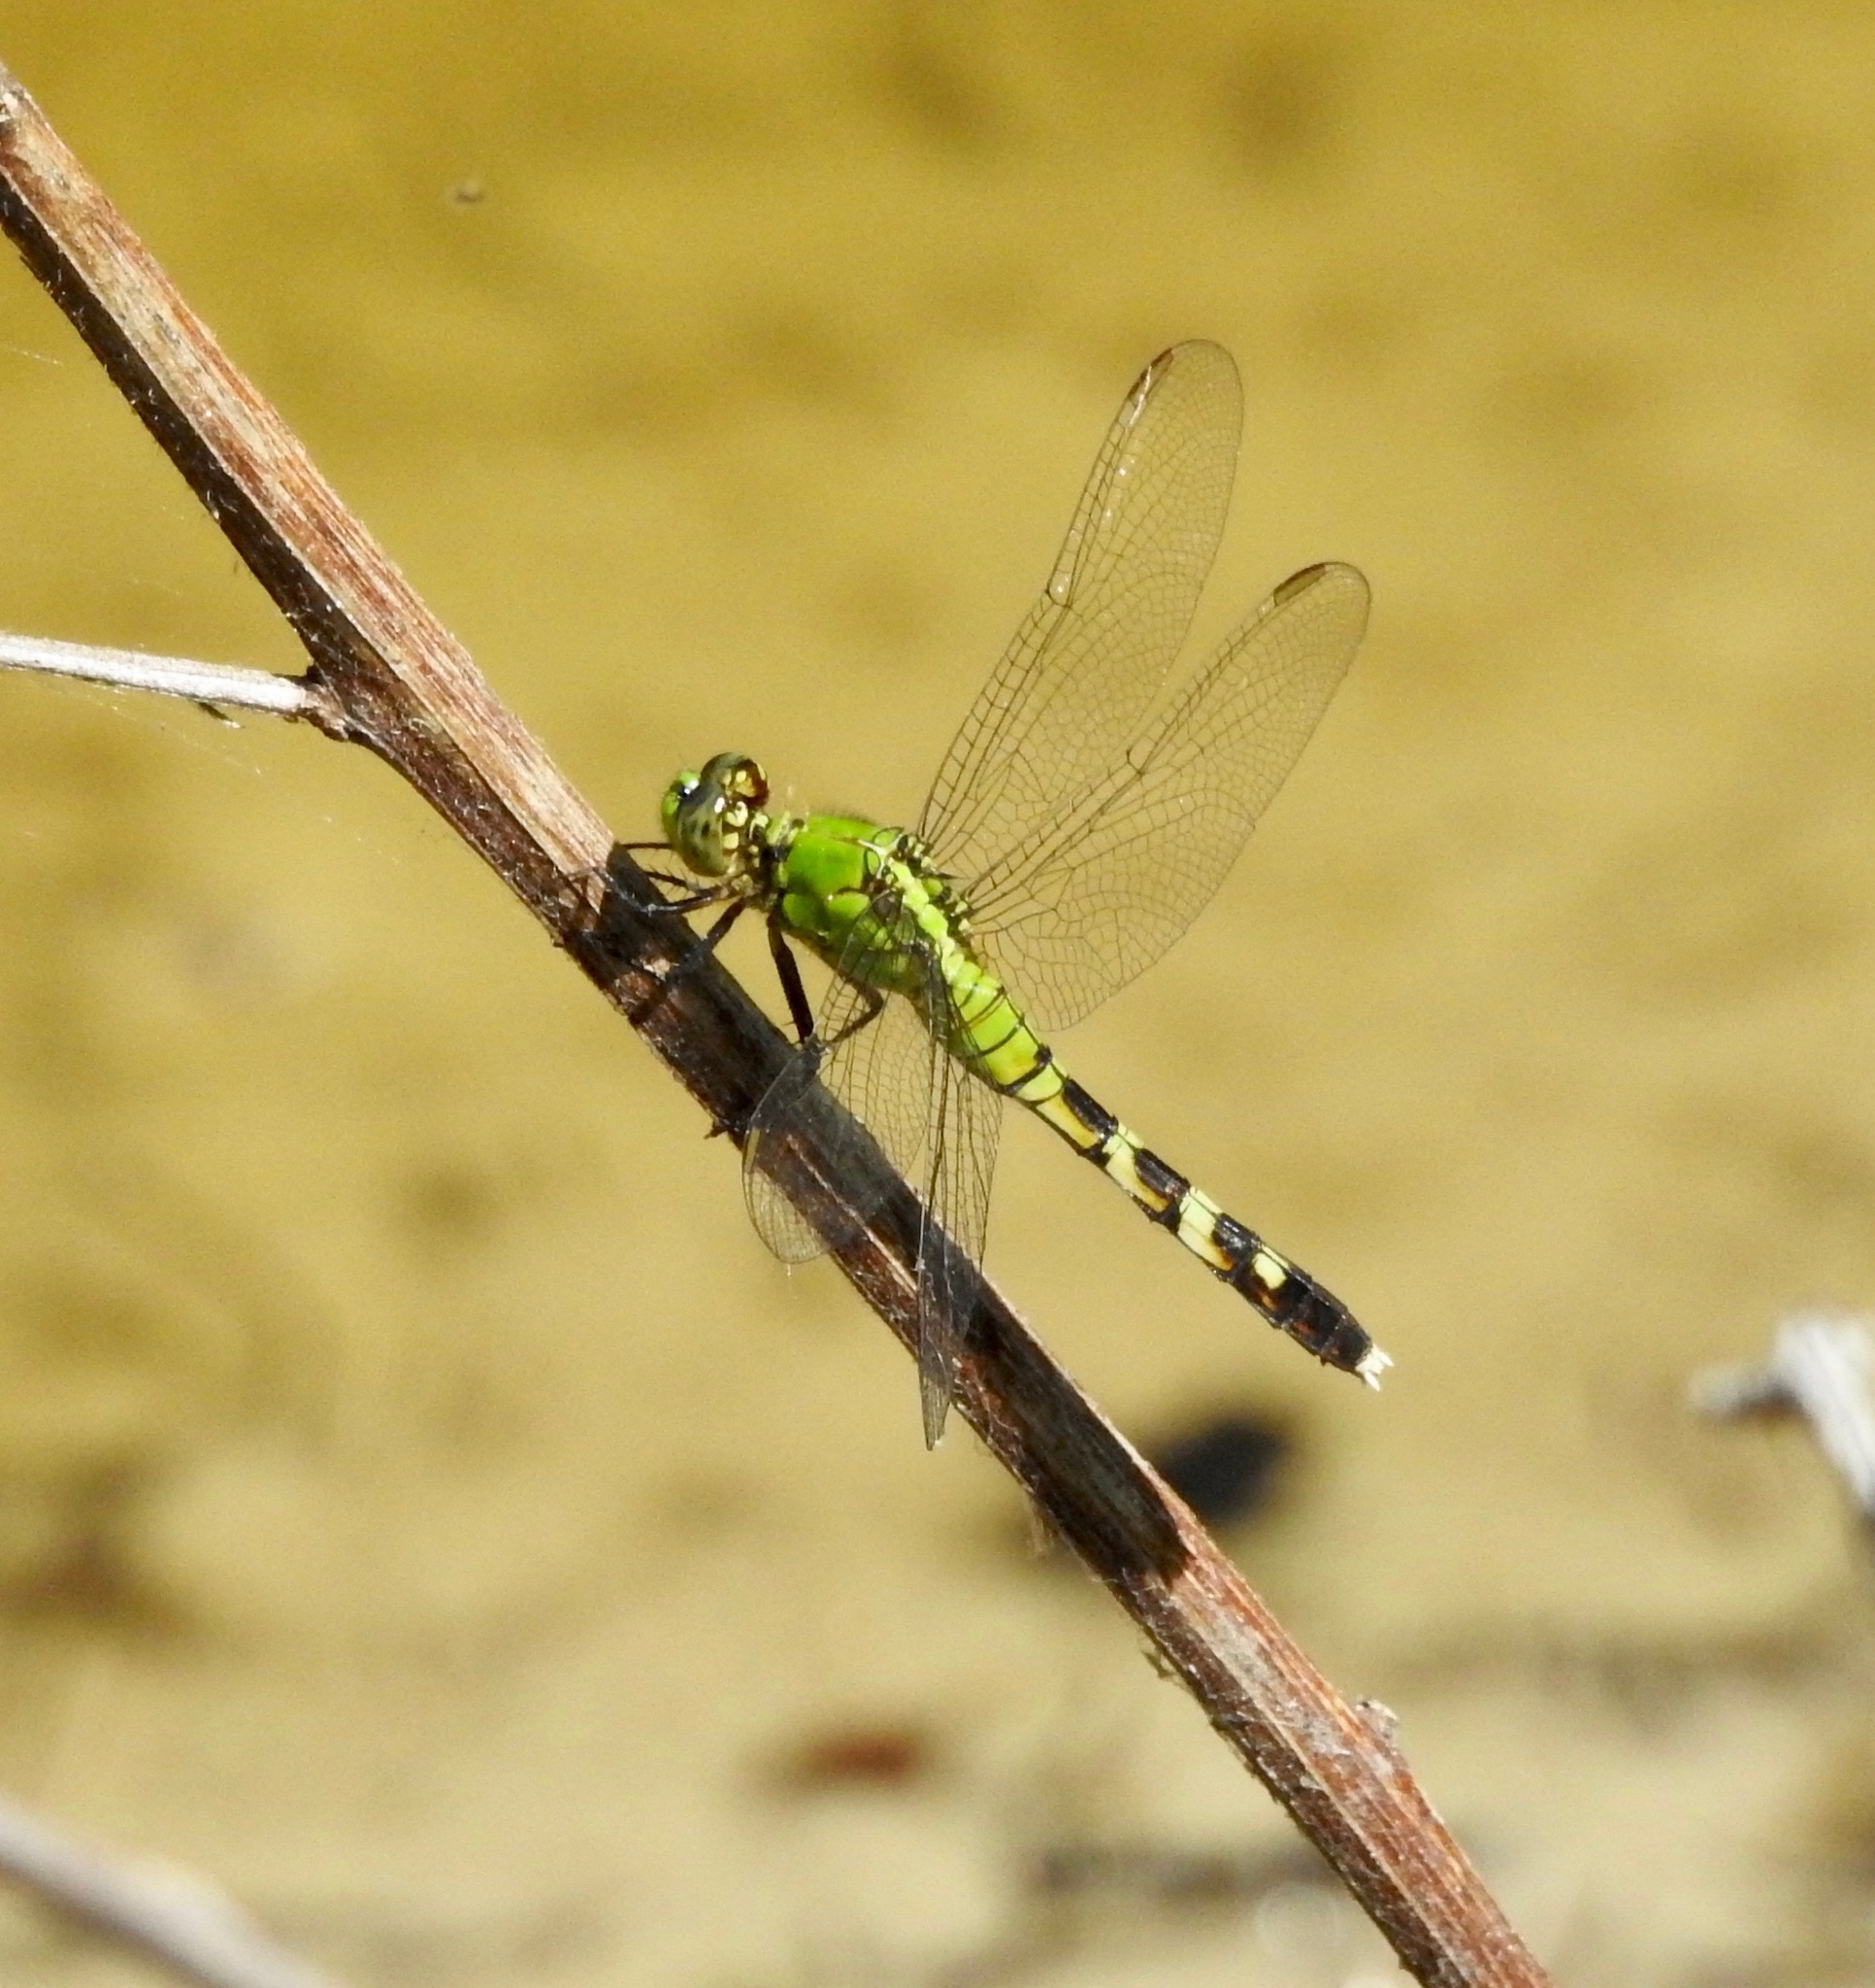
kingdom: Animalia
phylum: Arthropoda
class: Insecta
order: Odonata
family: Libellulidae
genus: Erythemis
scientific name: Erythemis simplicicollis
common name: Eastern pondhawk
